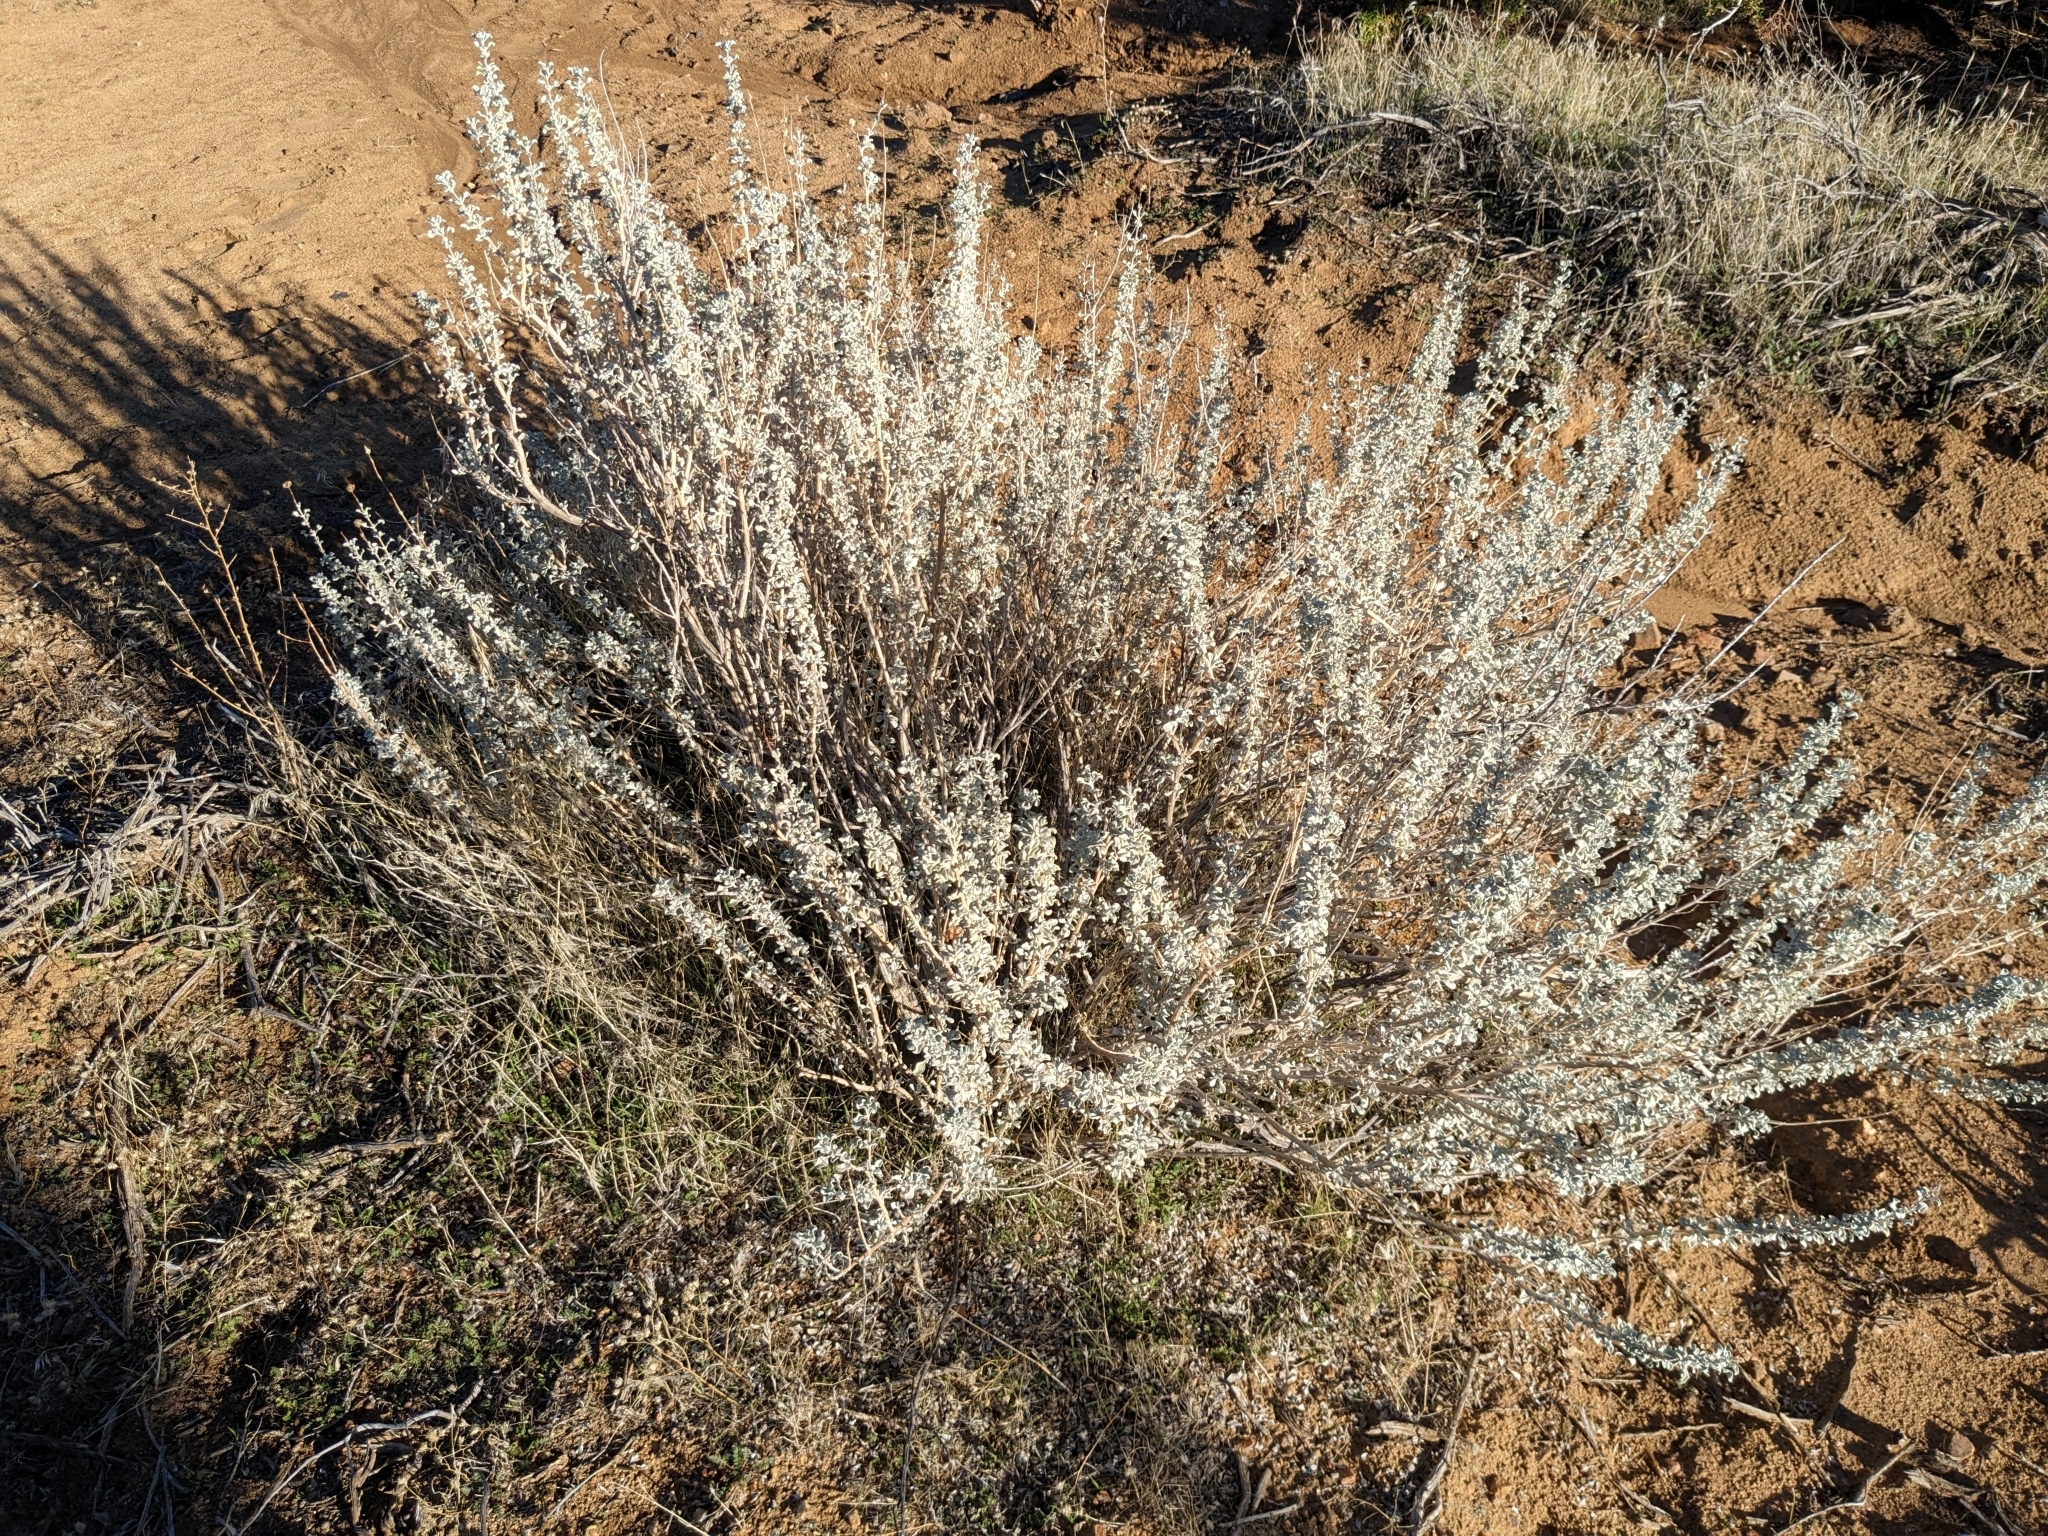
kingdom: Plantae
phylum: Tracheophyta
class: Magnoliopsida
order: Lamiales
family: Lamiaceae
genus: Salvia
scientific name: Salvia dorrii
